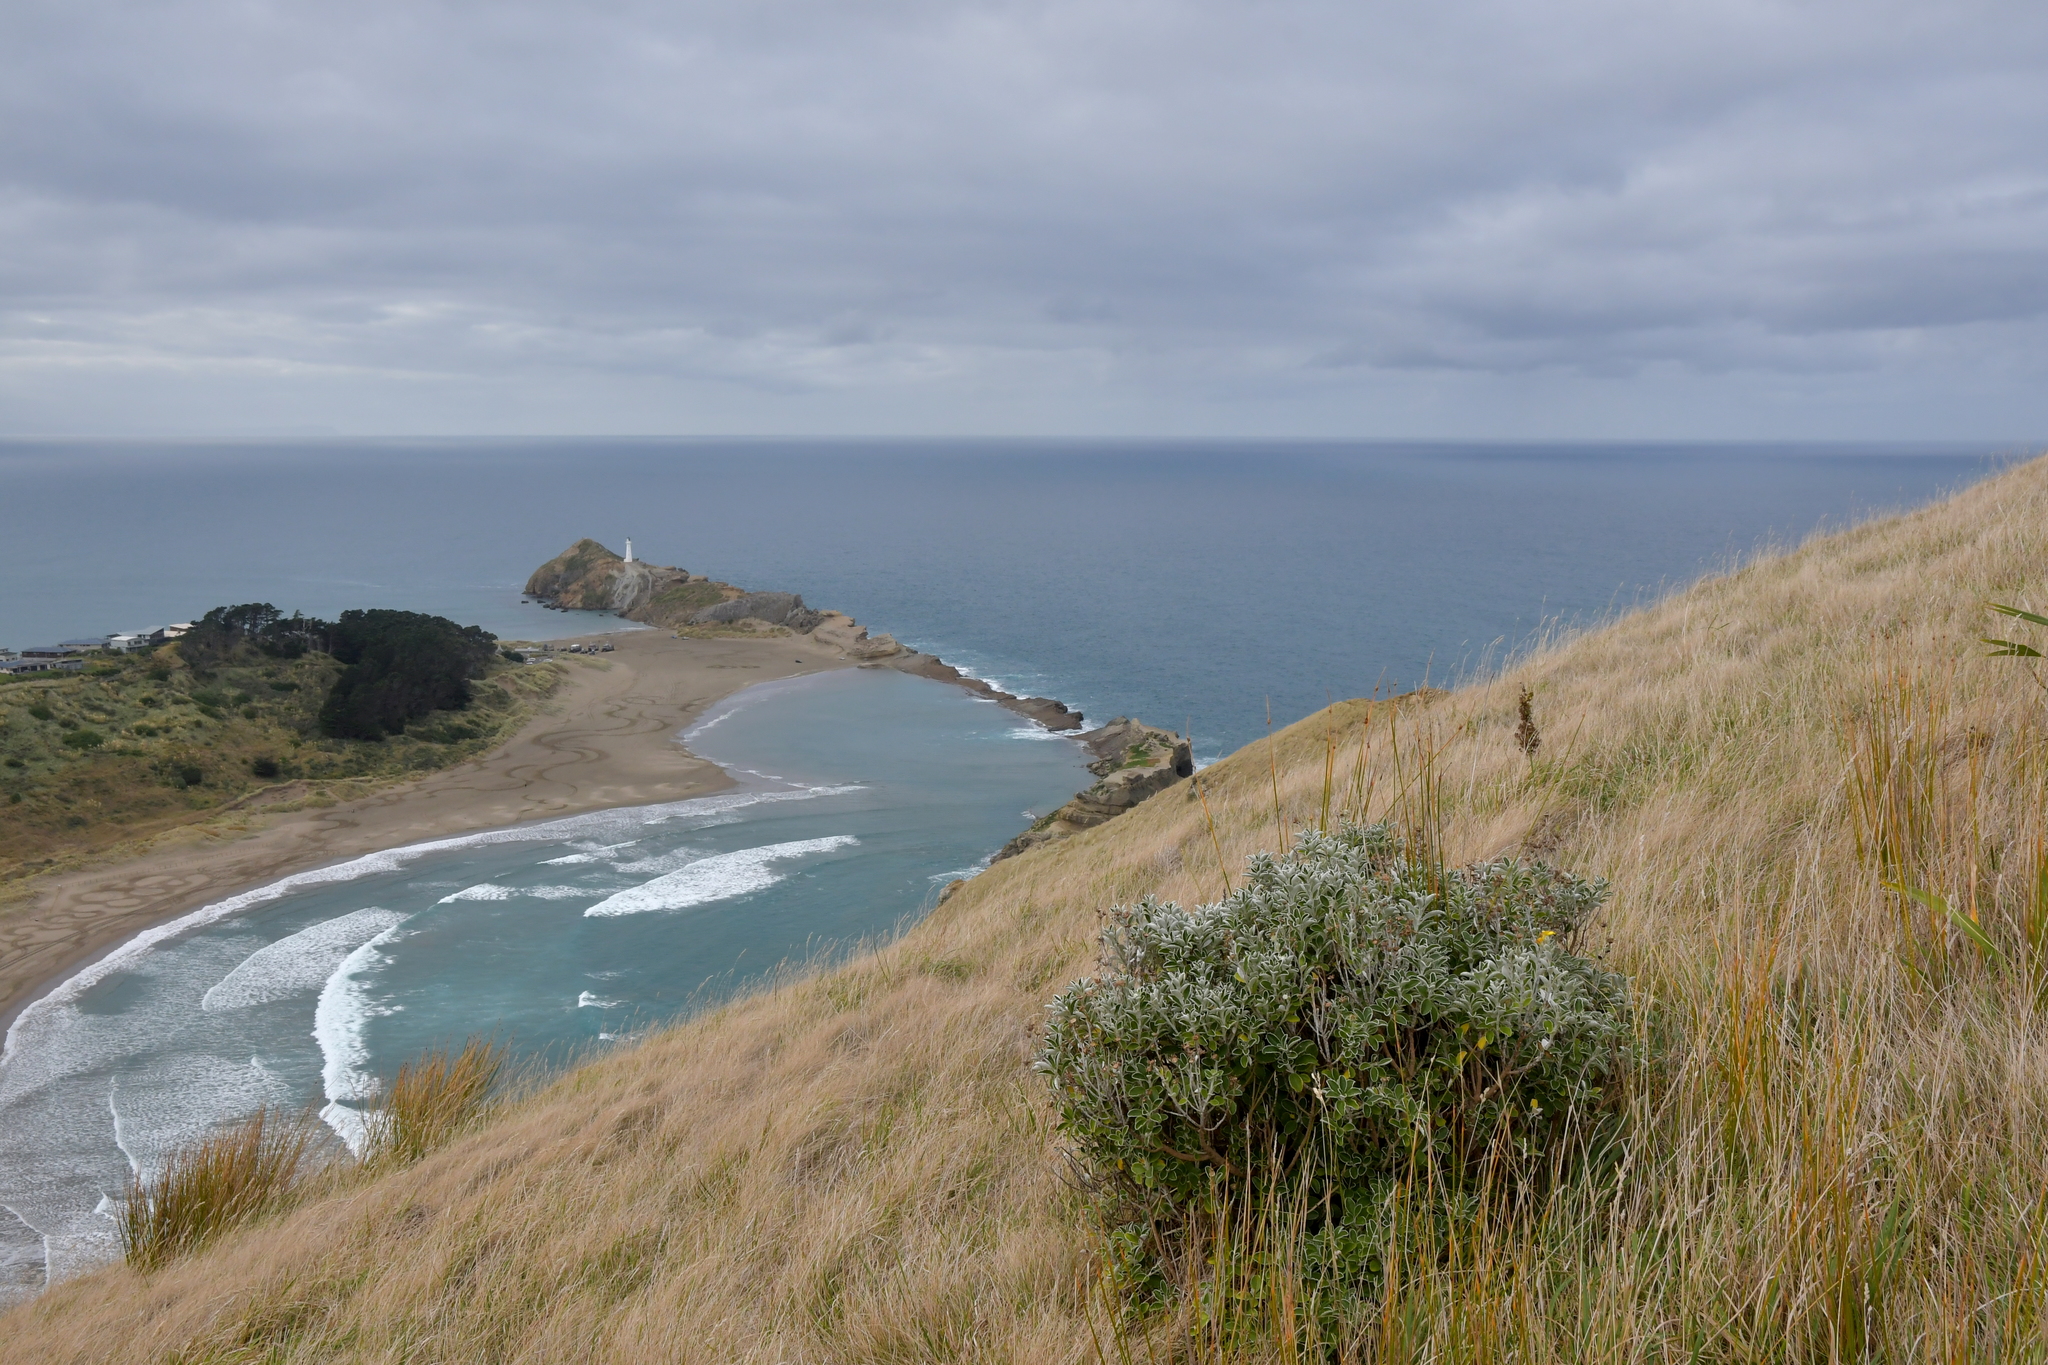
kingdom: Plantae
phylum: Tracheophyta
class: Magnoliopsida
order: Asterales
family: Asteraceae
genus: Brachyglottis
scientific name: Brachyglottis compacta
